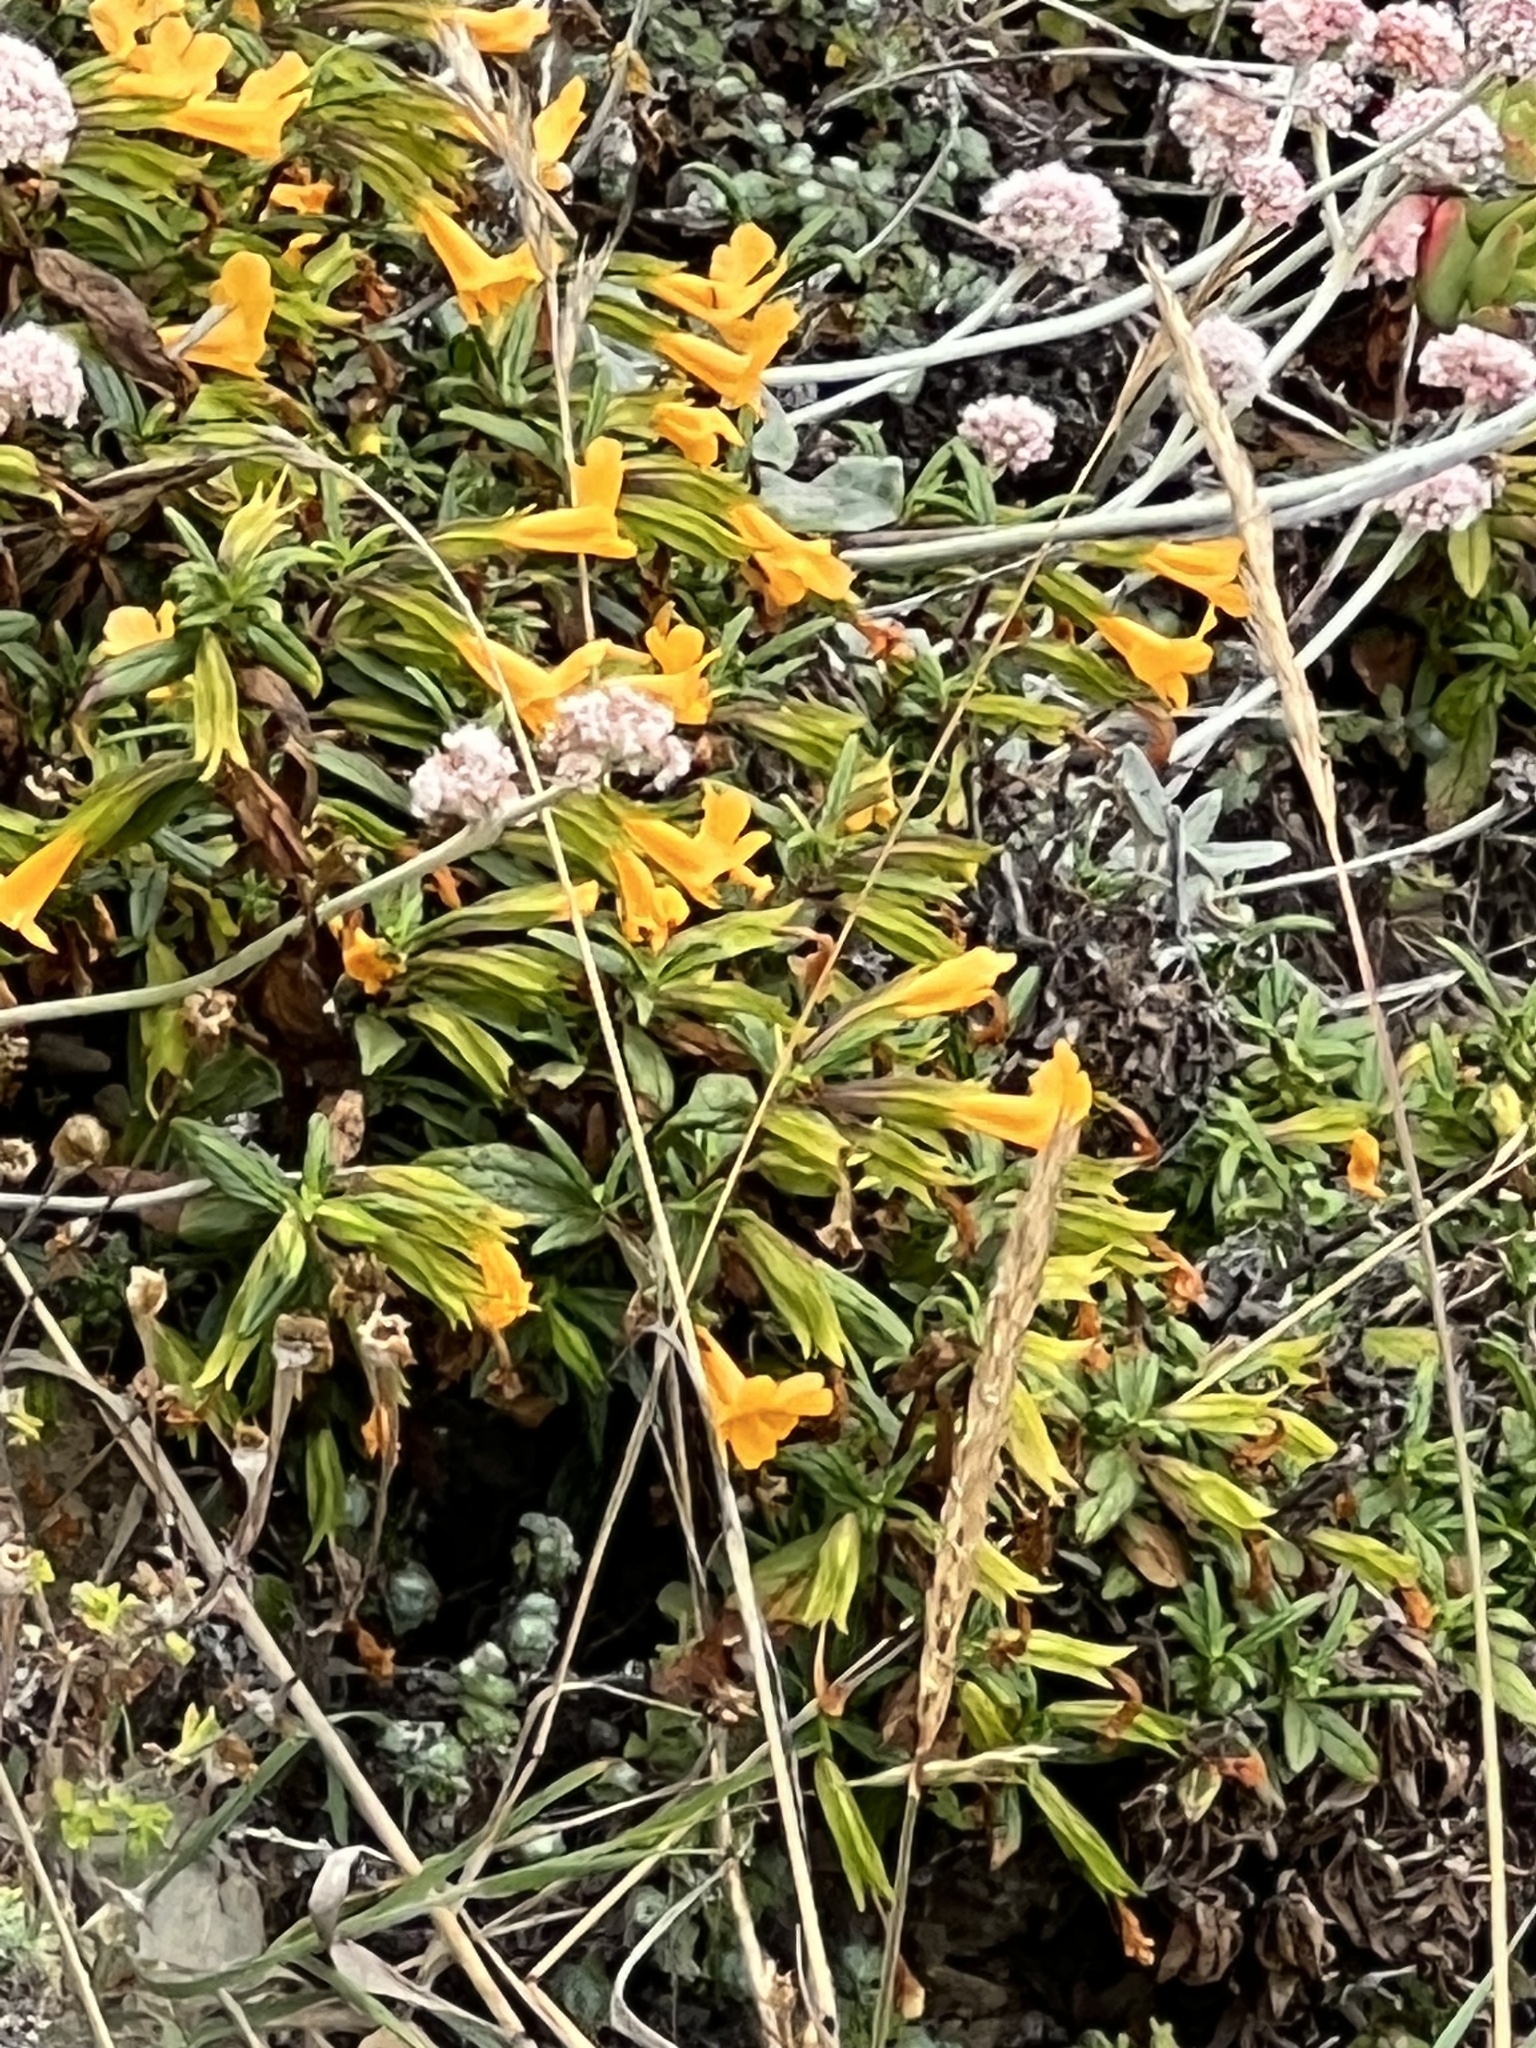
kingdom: Plantae
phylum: Tracheophyta
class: Magnoliopsida
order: Lamiales
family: Phrymaceae
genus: Diplacus
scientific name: Diplacus aurantiacus
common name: Bush monkey-flower
